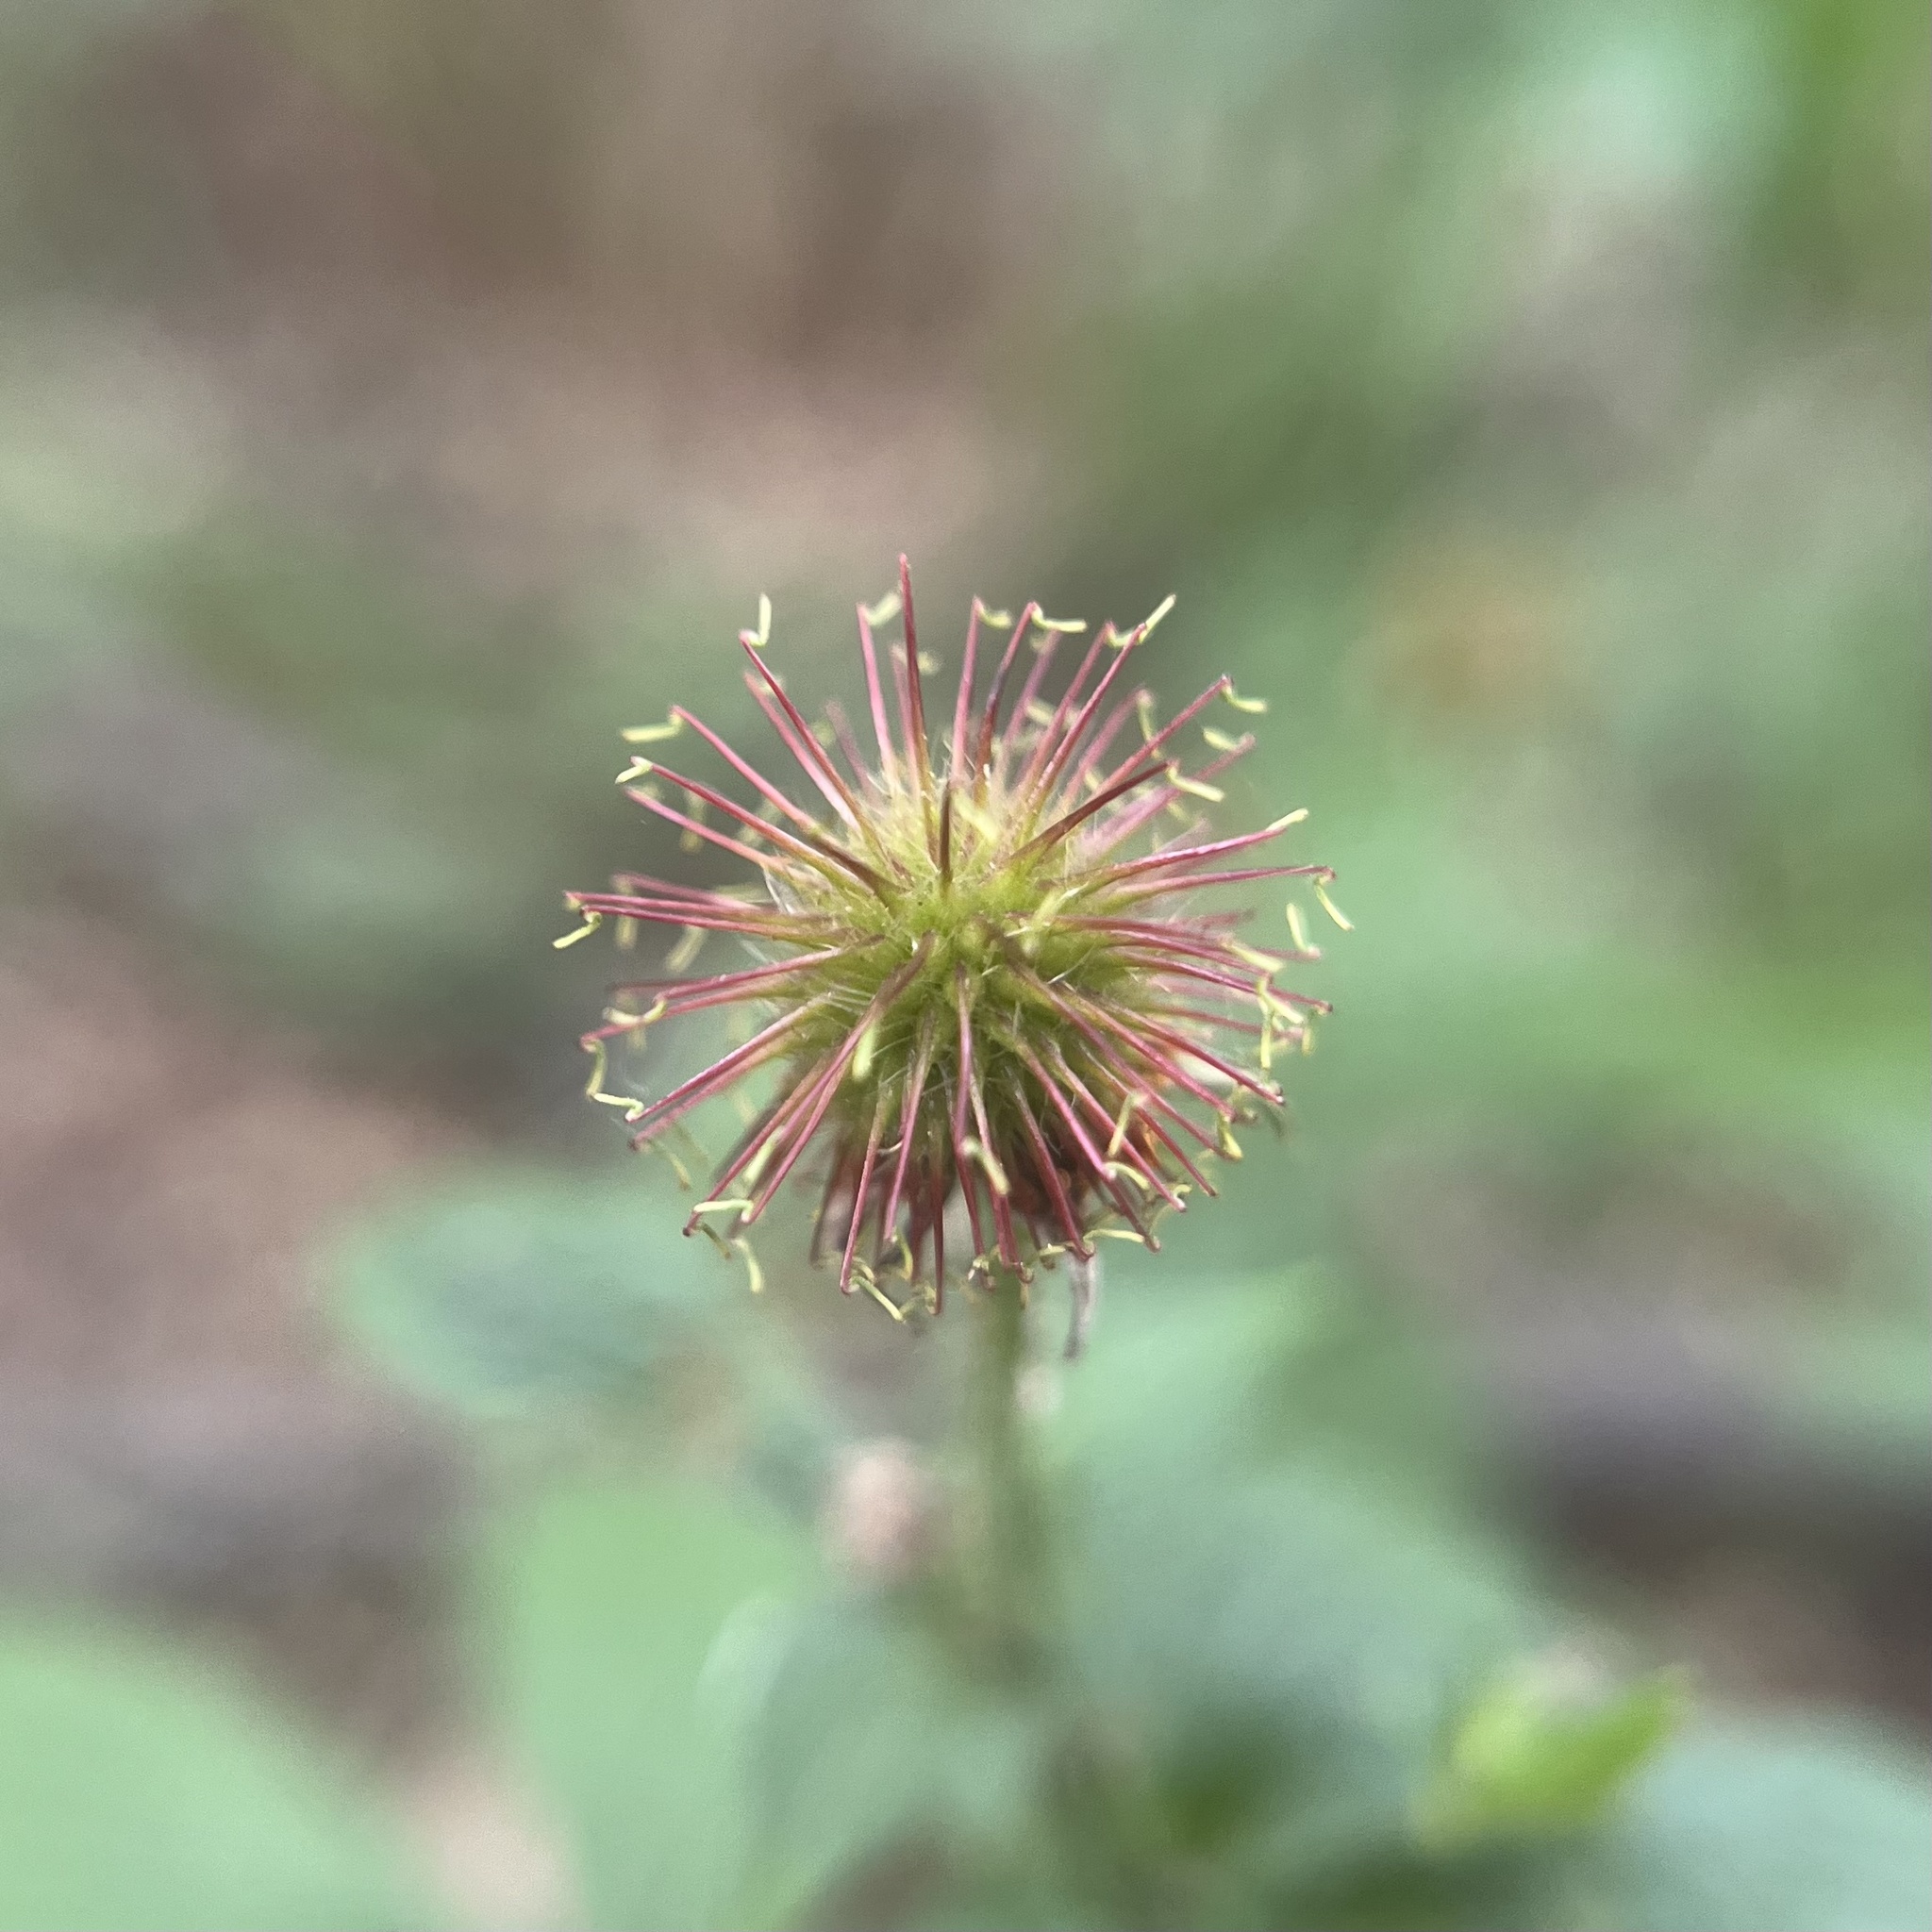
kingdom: Plantae
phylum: Tracheophyta
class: Magnoliopsida
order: Rosales
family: Rosaceae
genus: Geum
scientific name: Geum urbanum
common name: Wood avens
